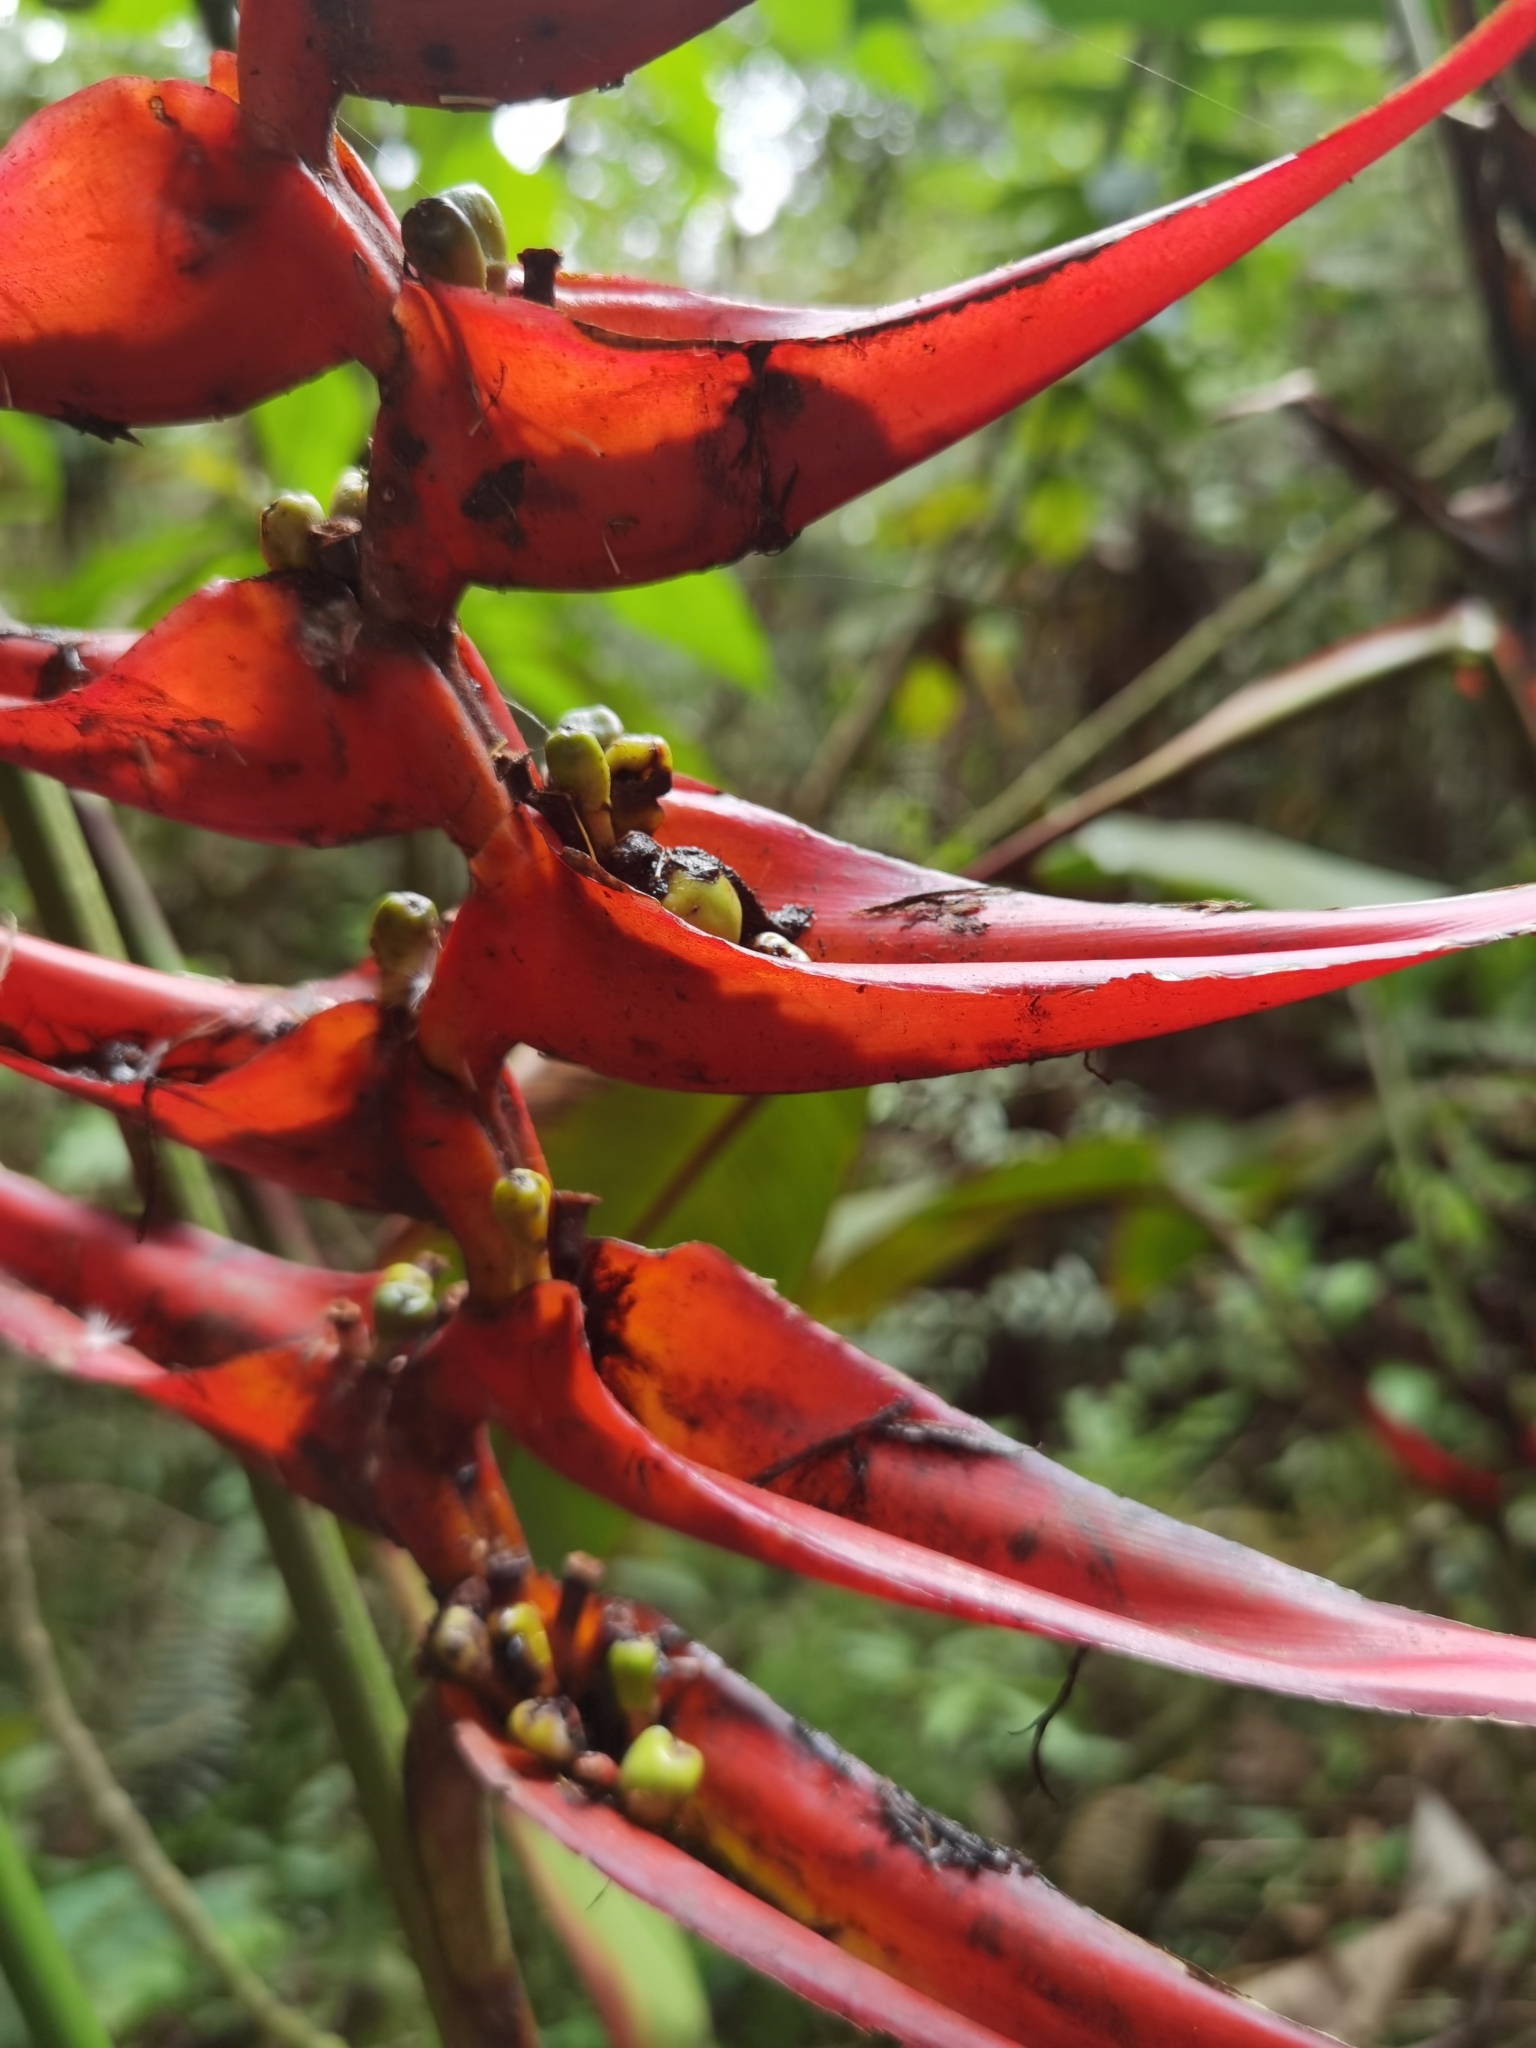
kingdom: Plantae
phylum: Tracheophyta
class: Liliopsida
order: Zingiberales
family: Heliconiaceae
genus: Heliconia
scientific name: Heliconia lankesteri
